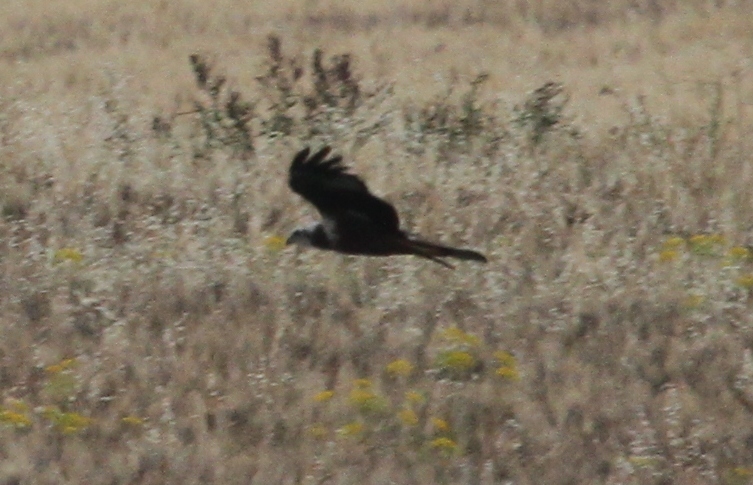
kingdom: Animalia
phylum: Chordata
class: Aves
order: Accipitriformes
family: Accipitridae
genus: Circus
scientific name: Circus aeruginosus
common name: Western marsh harrier
